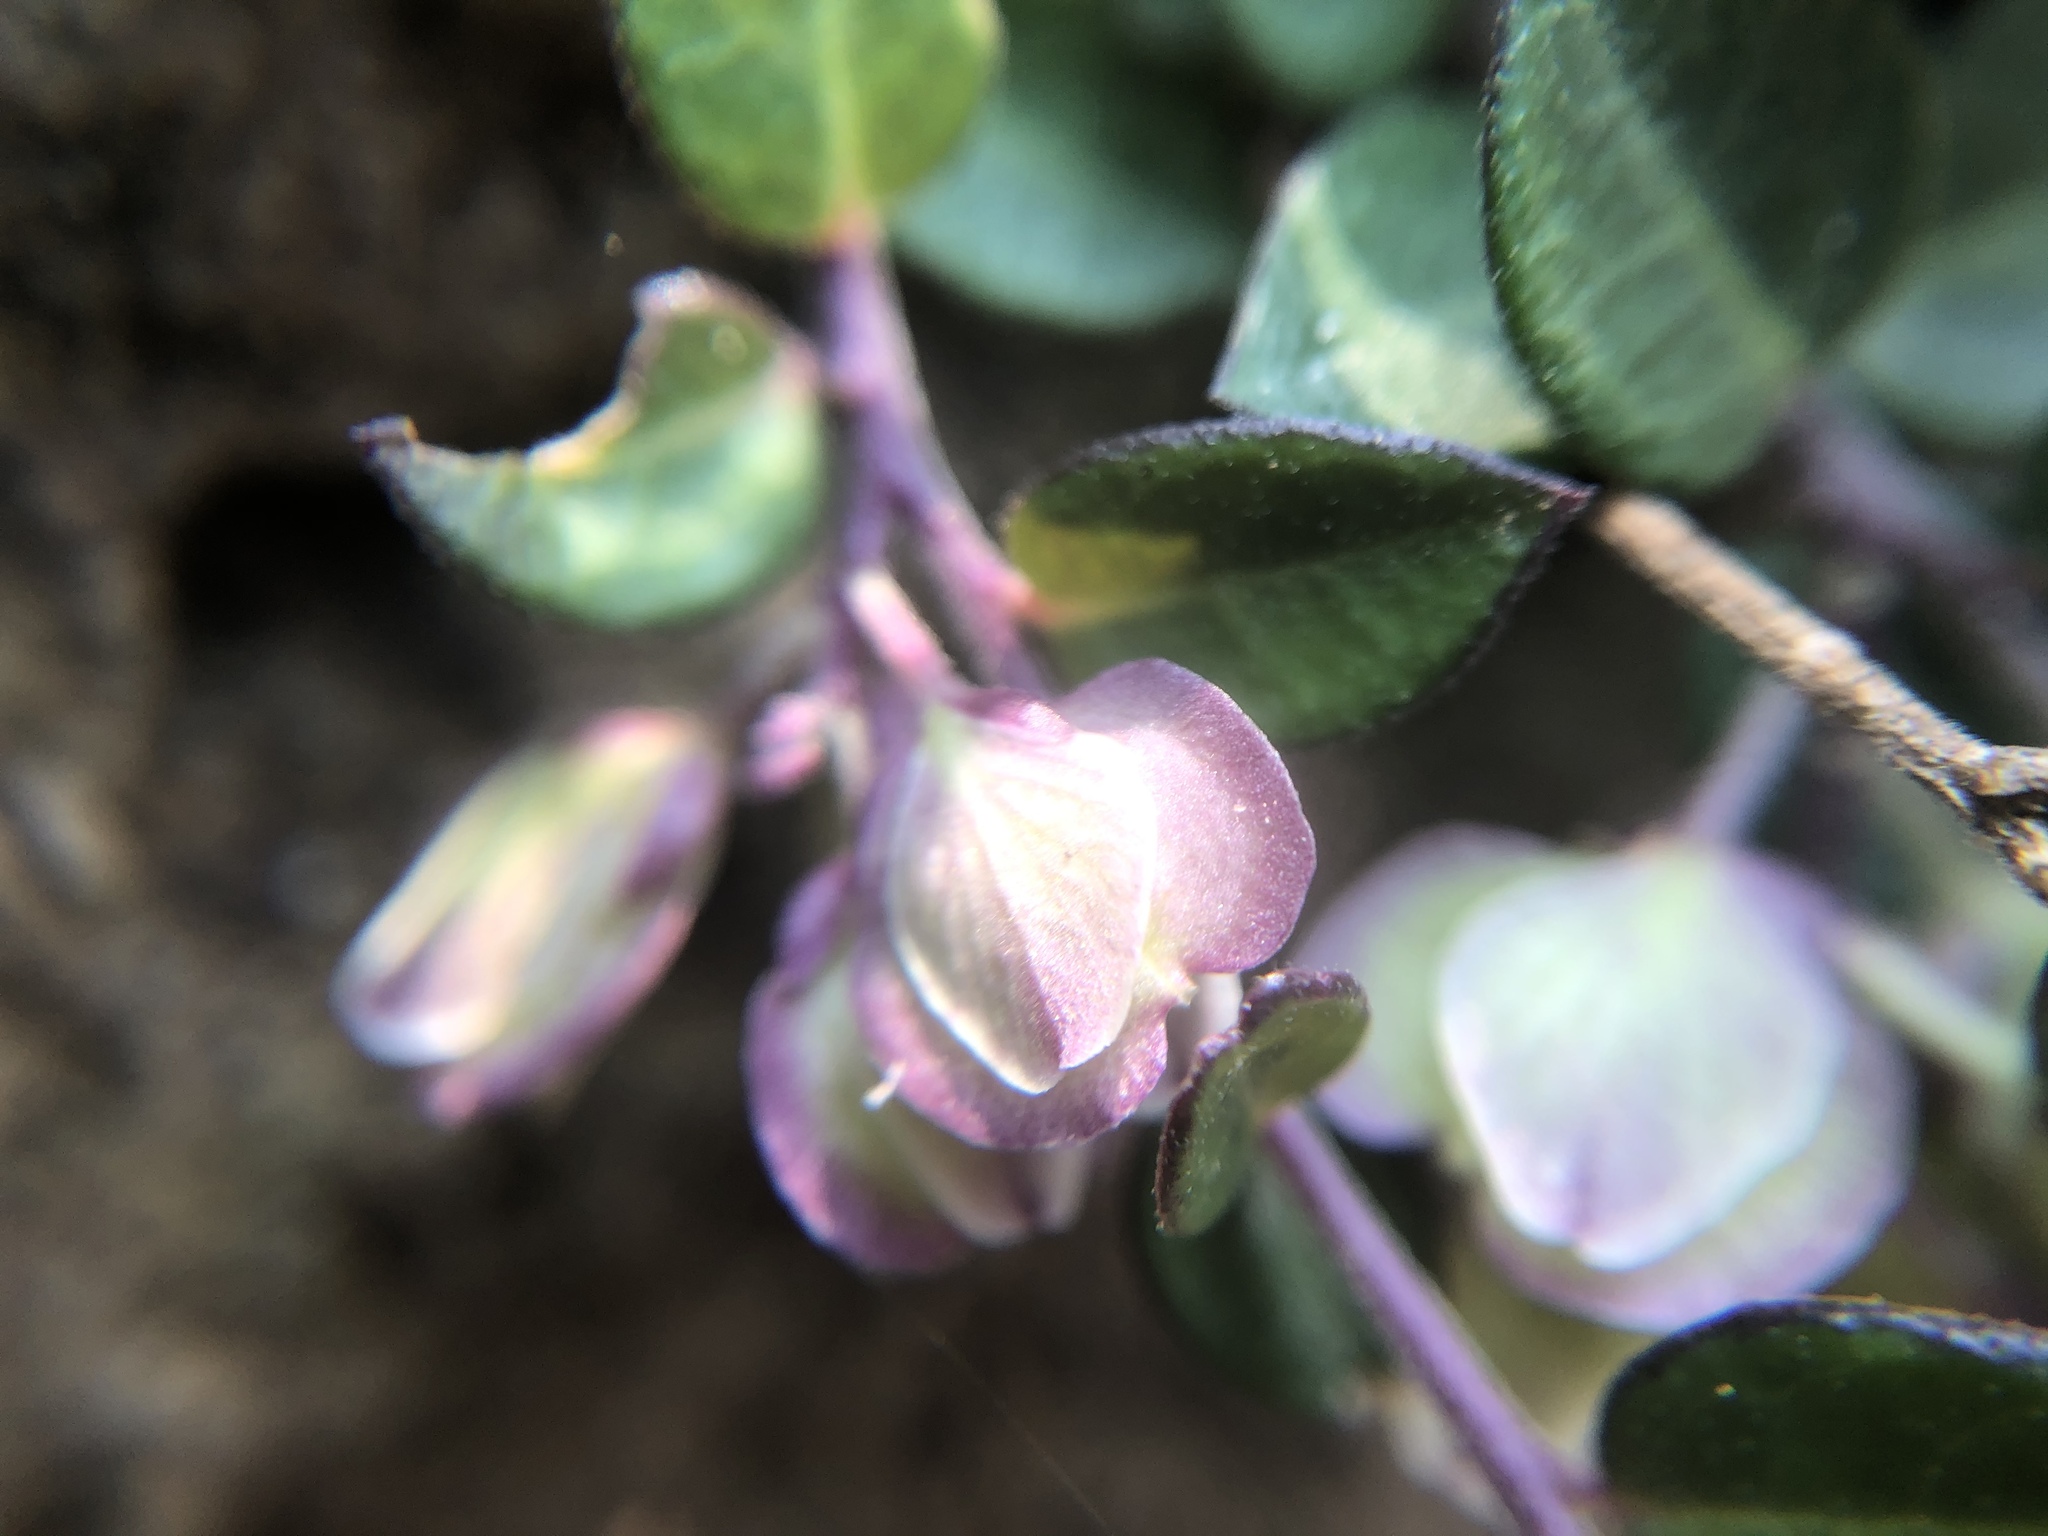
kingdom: Plantae
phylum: Tracheophyta
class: Magnoliopsida
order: Fabales
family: Polygalaceae
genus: Polygala
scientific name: Polygala japonica
